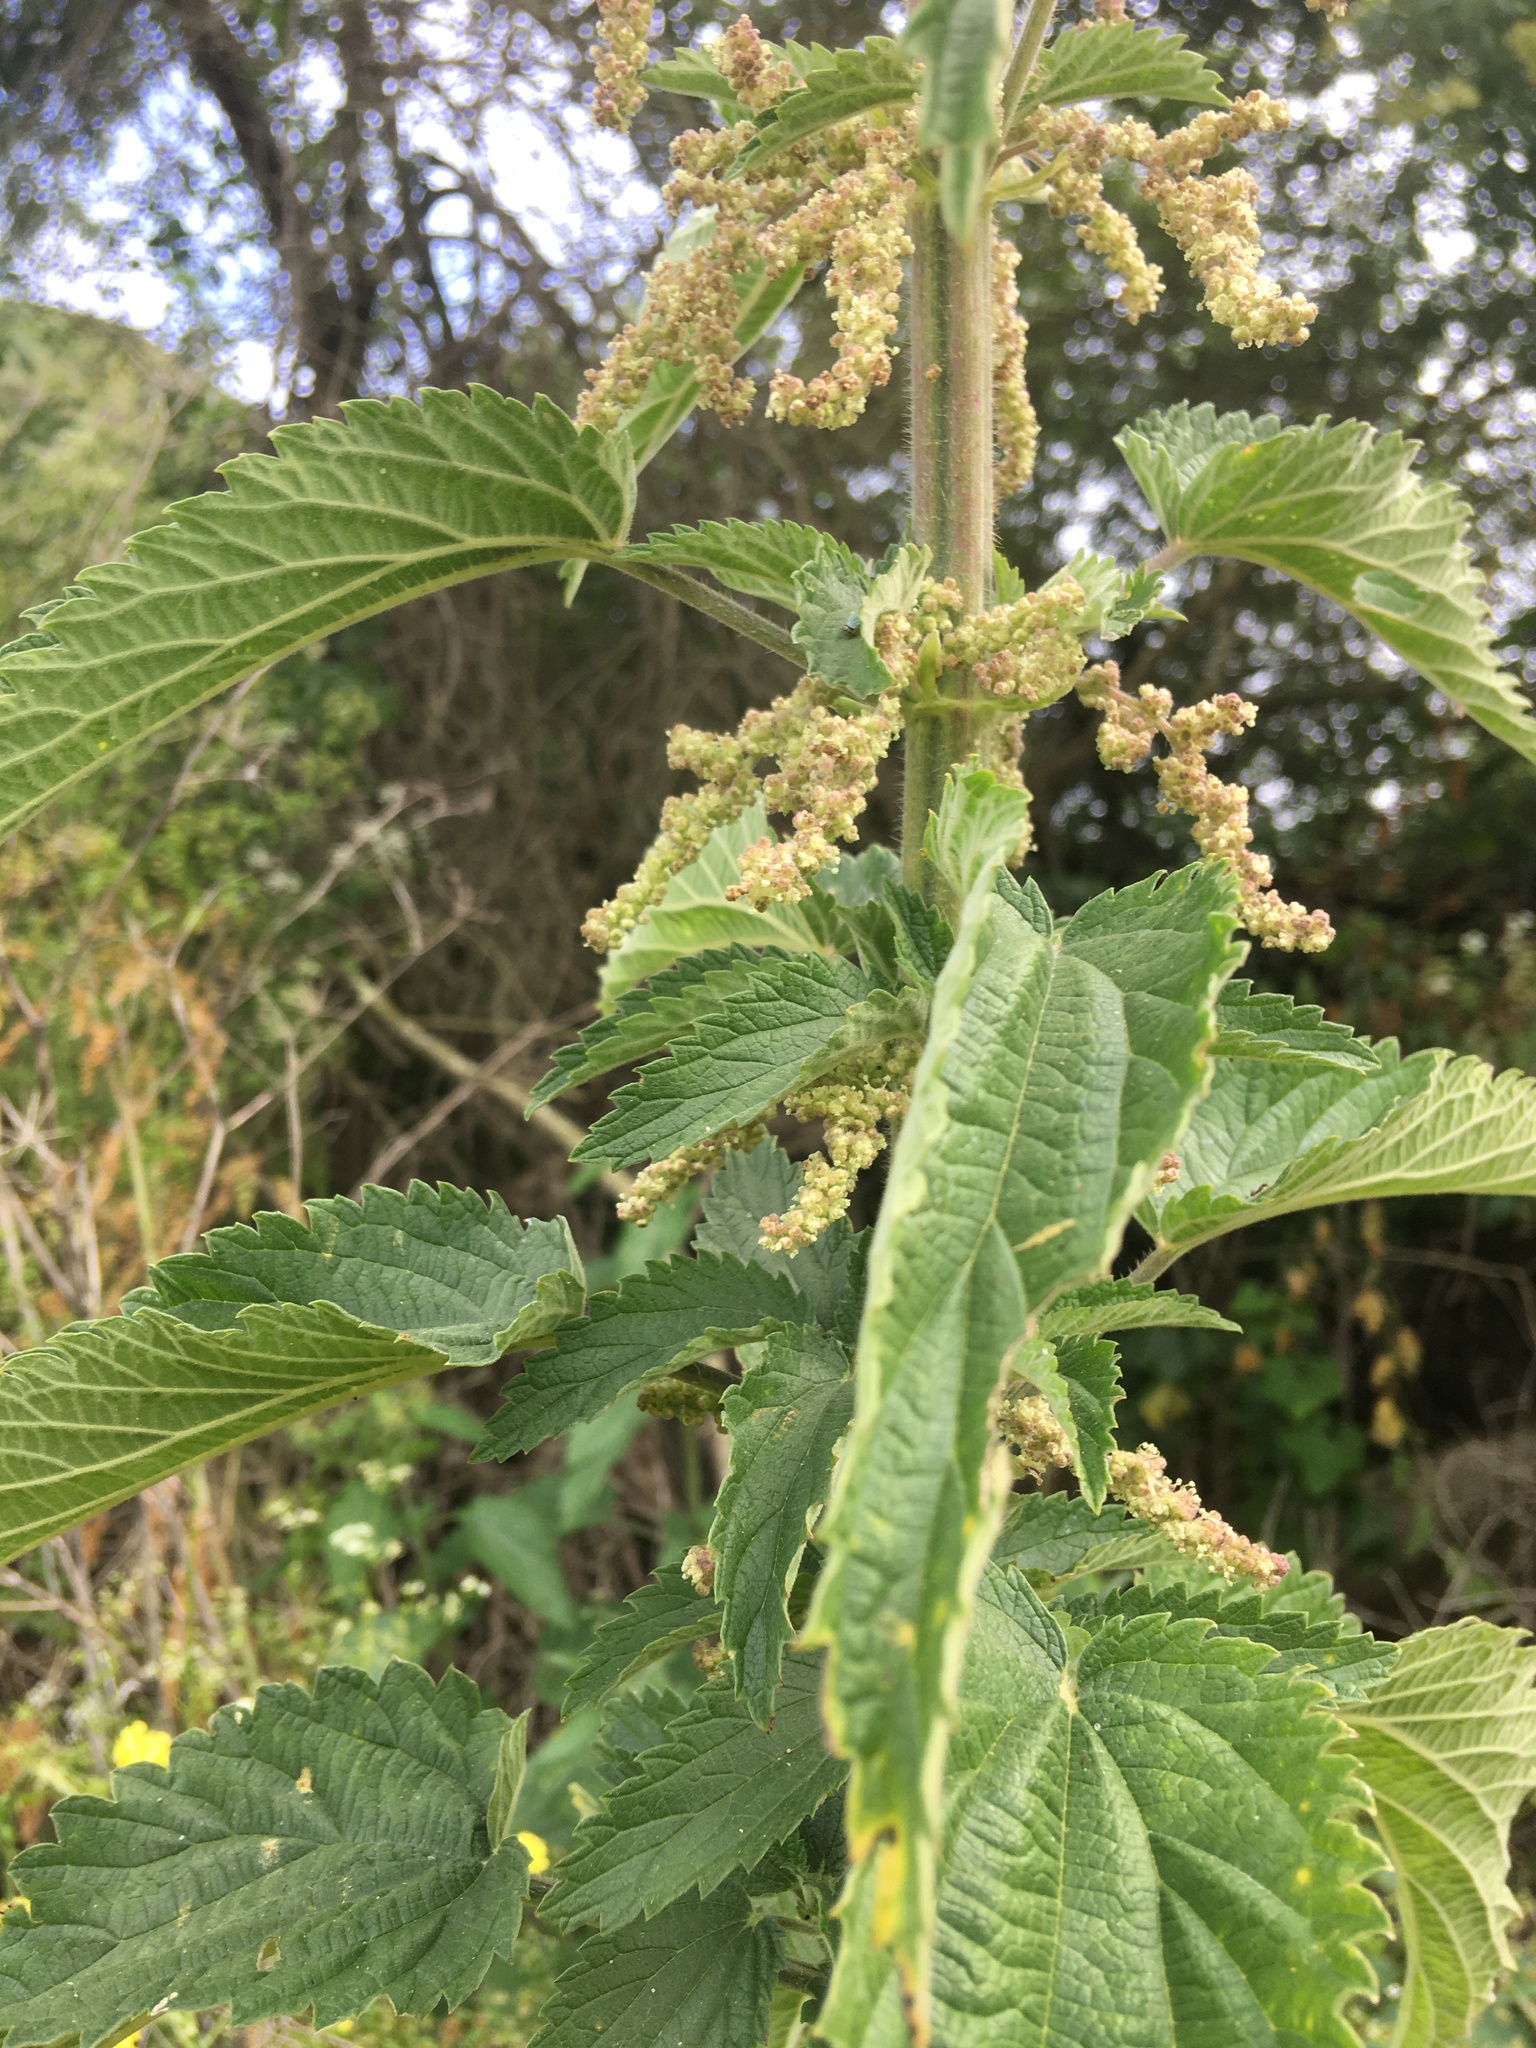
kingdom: Plantae
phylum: Tracheophyta
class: Magnoliopsida
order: Rosales
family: Urticaceae
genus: Urtica
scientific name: Urtica gracilis
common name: Slender stinging nettle
